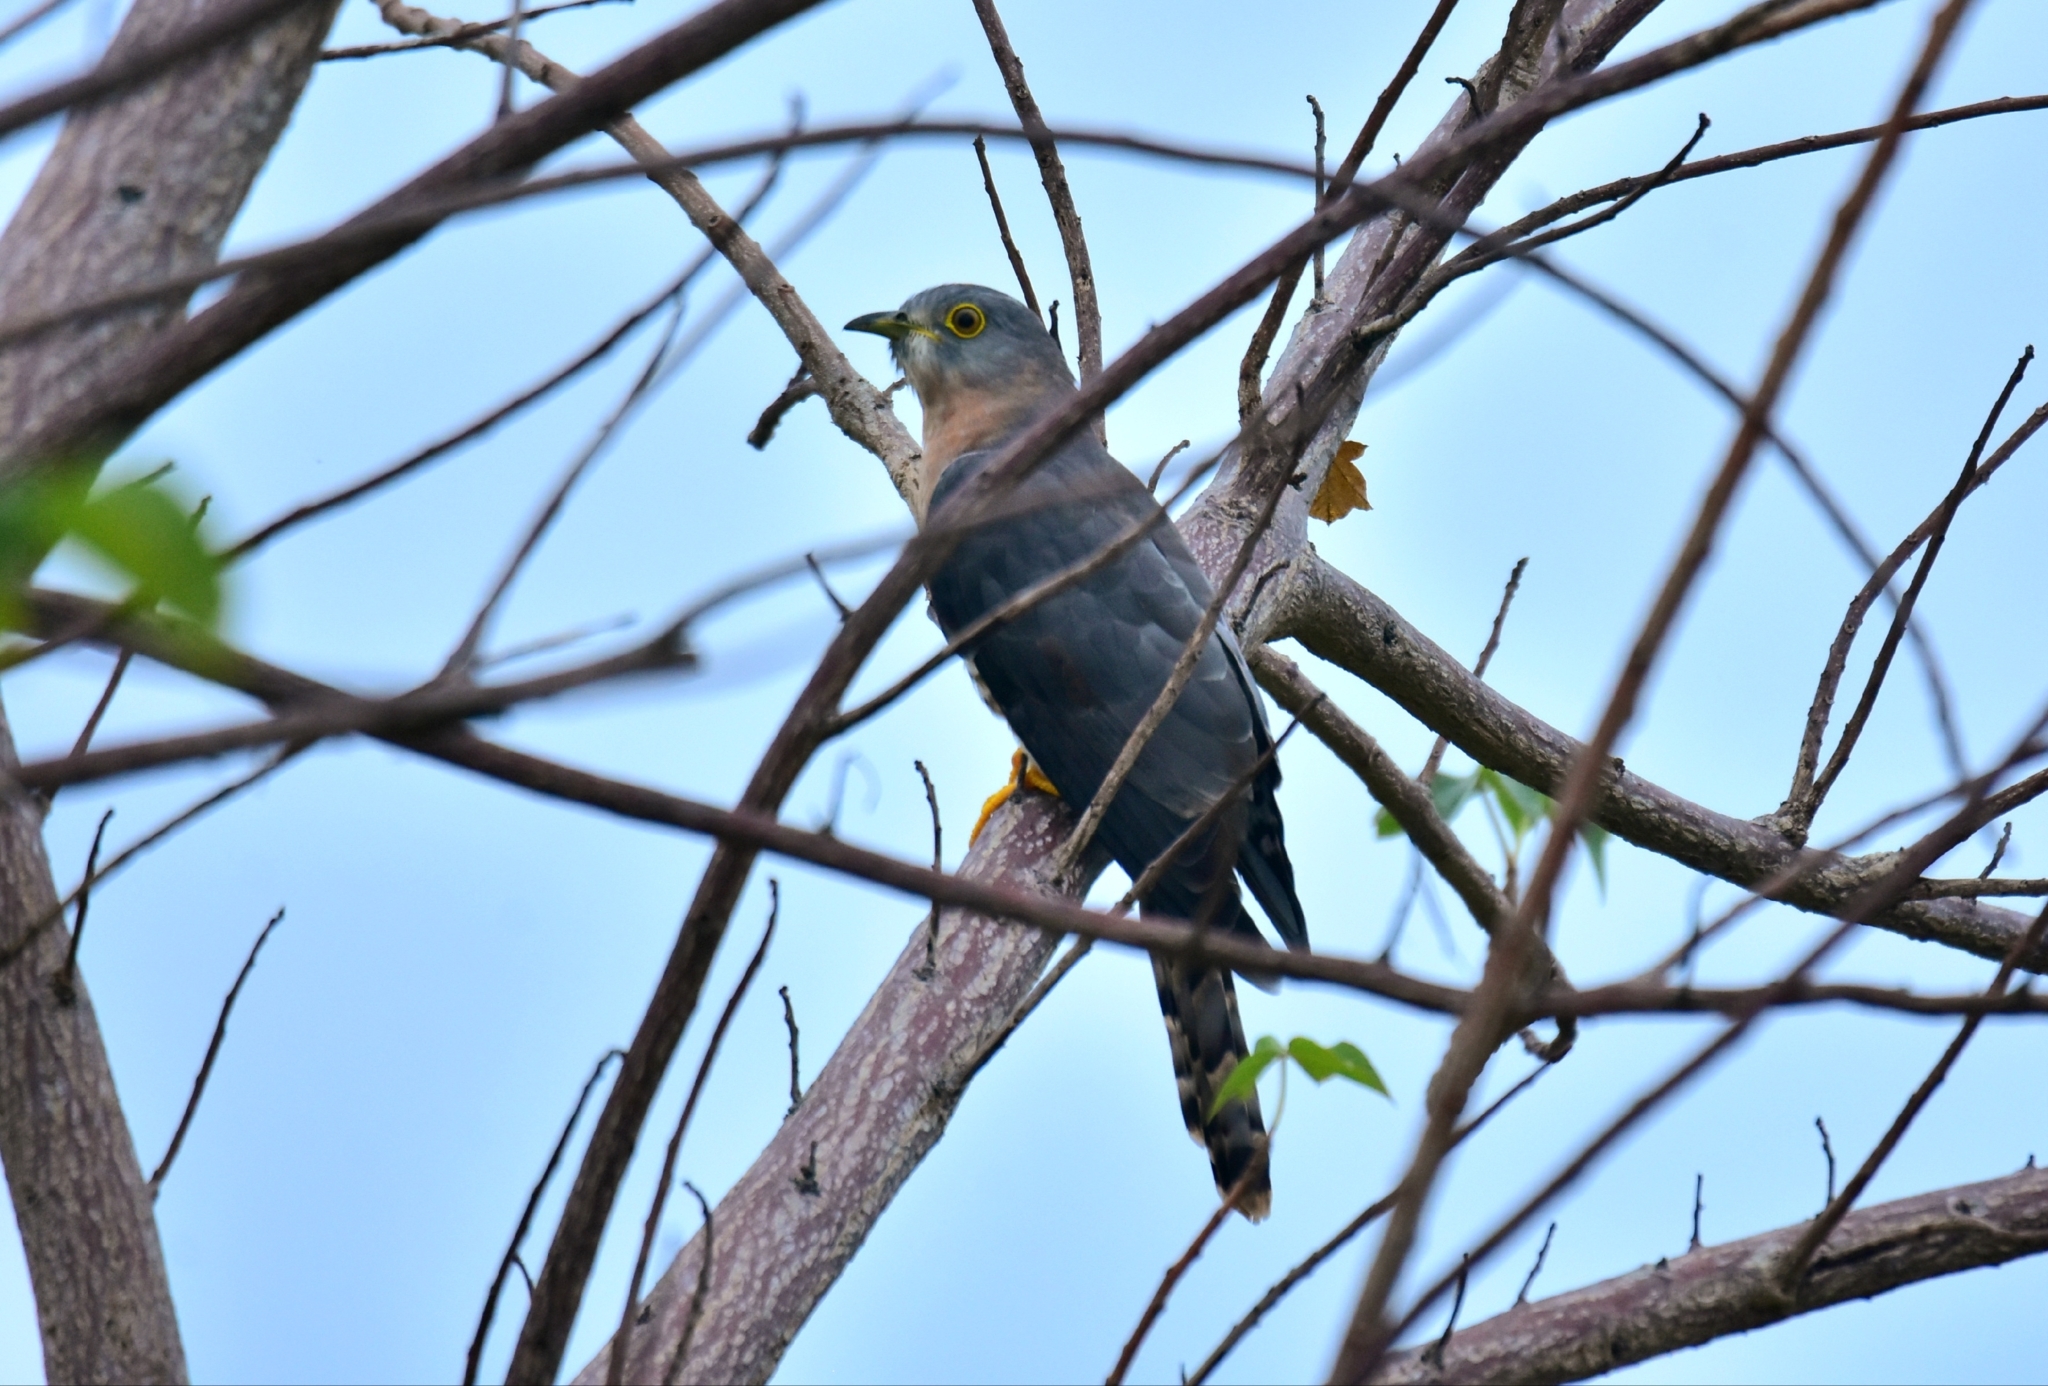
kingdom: Animalia
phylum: Chordata
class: Aves
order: Cuculiformes
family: Cuculidae
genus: Cuculus
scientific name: Cuculus varius
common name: Common hawk cuckoo
